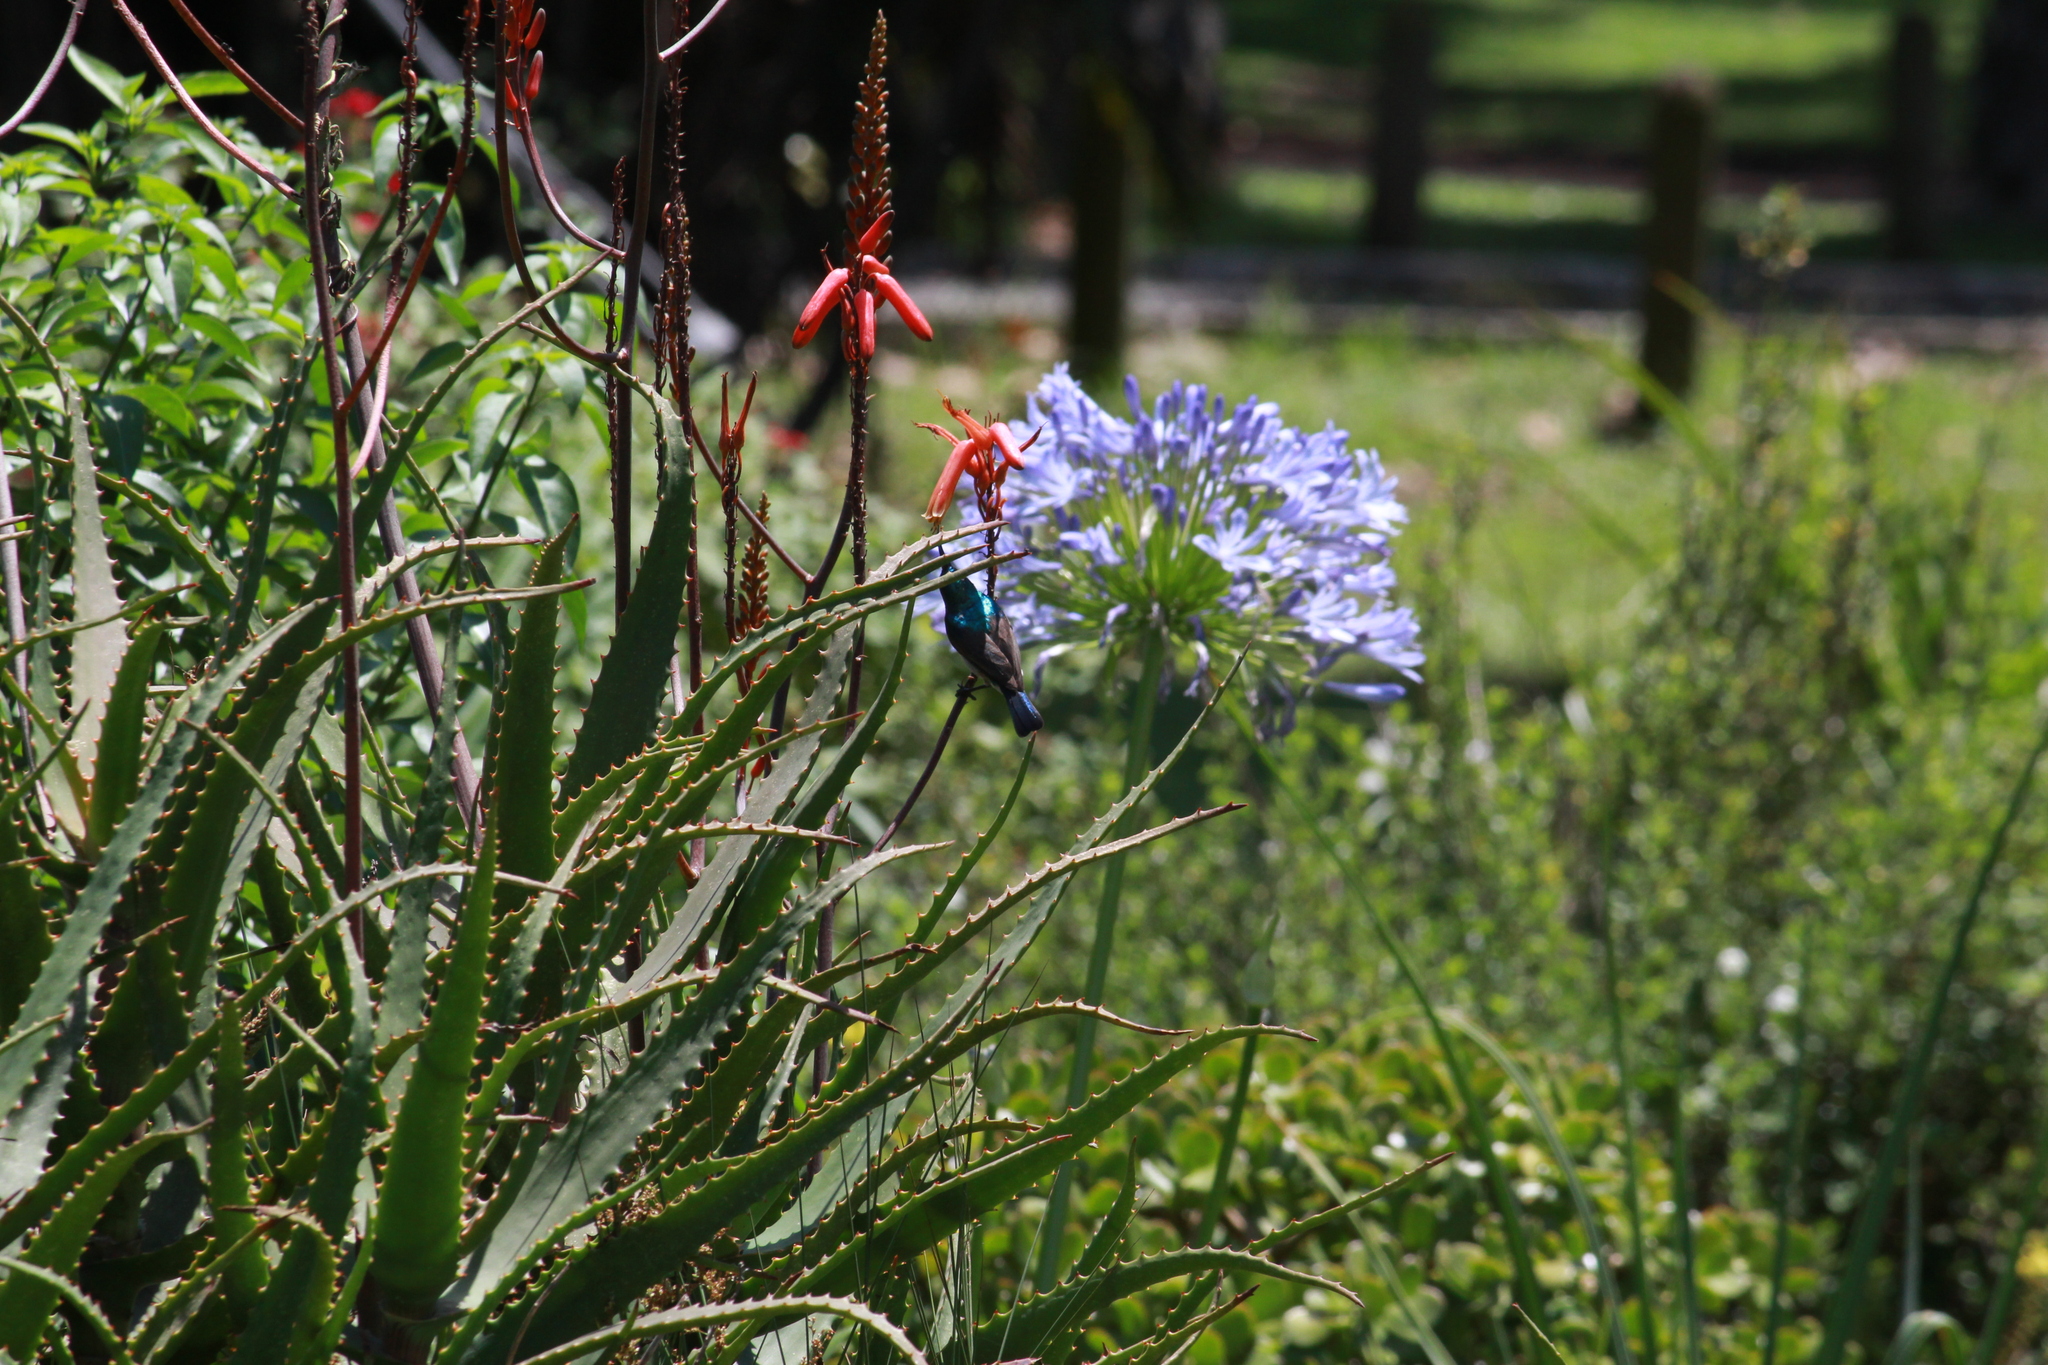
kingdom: Animalia
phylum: Chordata
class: Aves
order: Passeriformes
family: Nectariniidae
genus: Cinnyris
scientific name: Cinnyris talatala
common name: White-bellied sunbird
